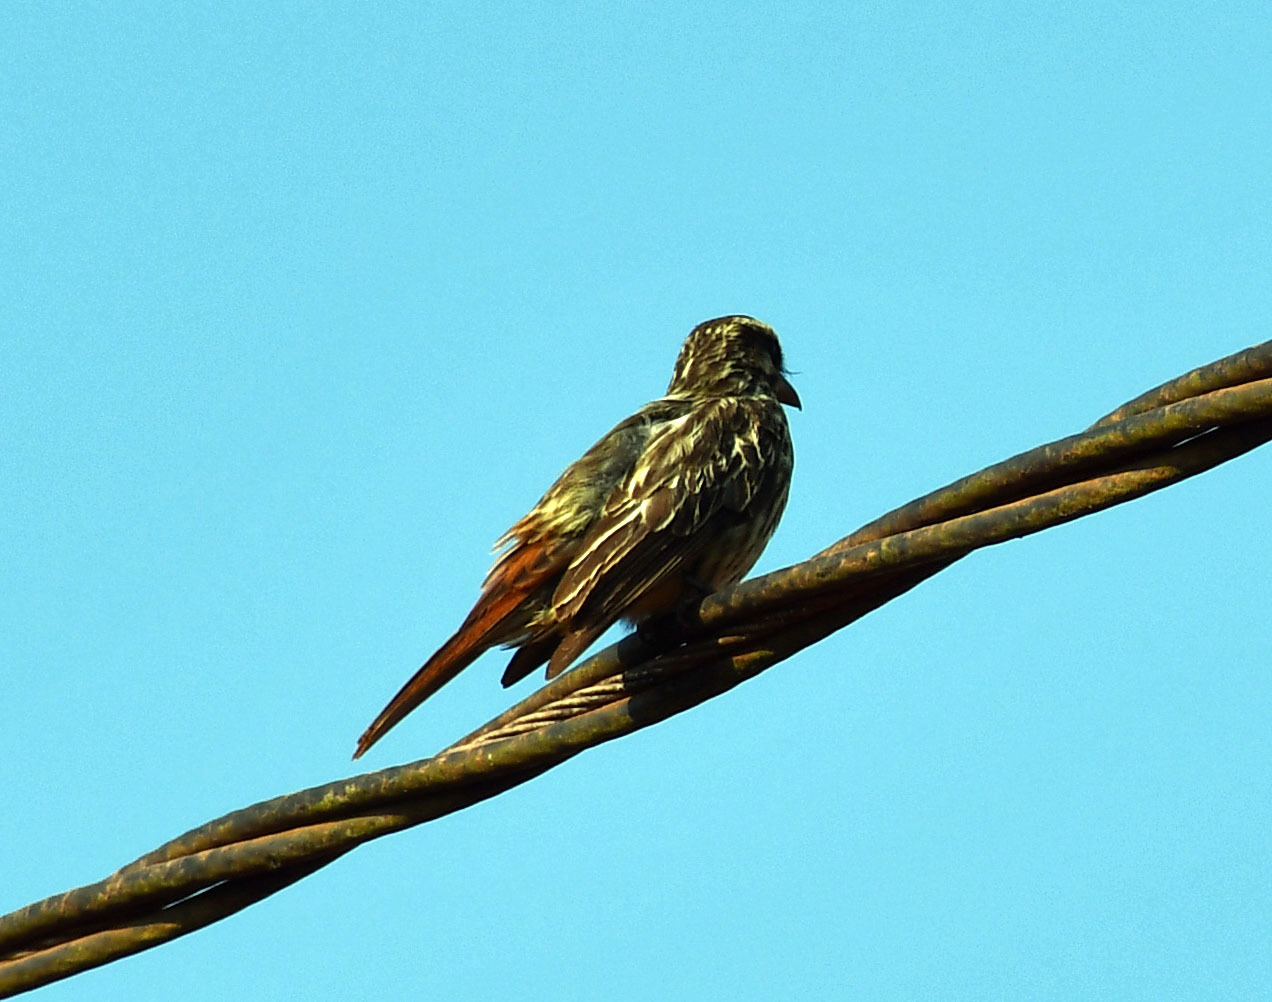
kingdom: Animalia
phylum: Chordata
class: Aves
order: Passeriformes
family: Tyrannidae
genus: Myiodynastes
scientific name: Myiodynastes maculatus
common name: Streaked flycatcher
